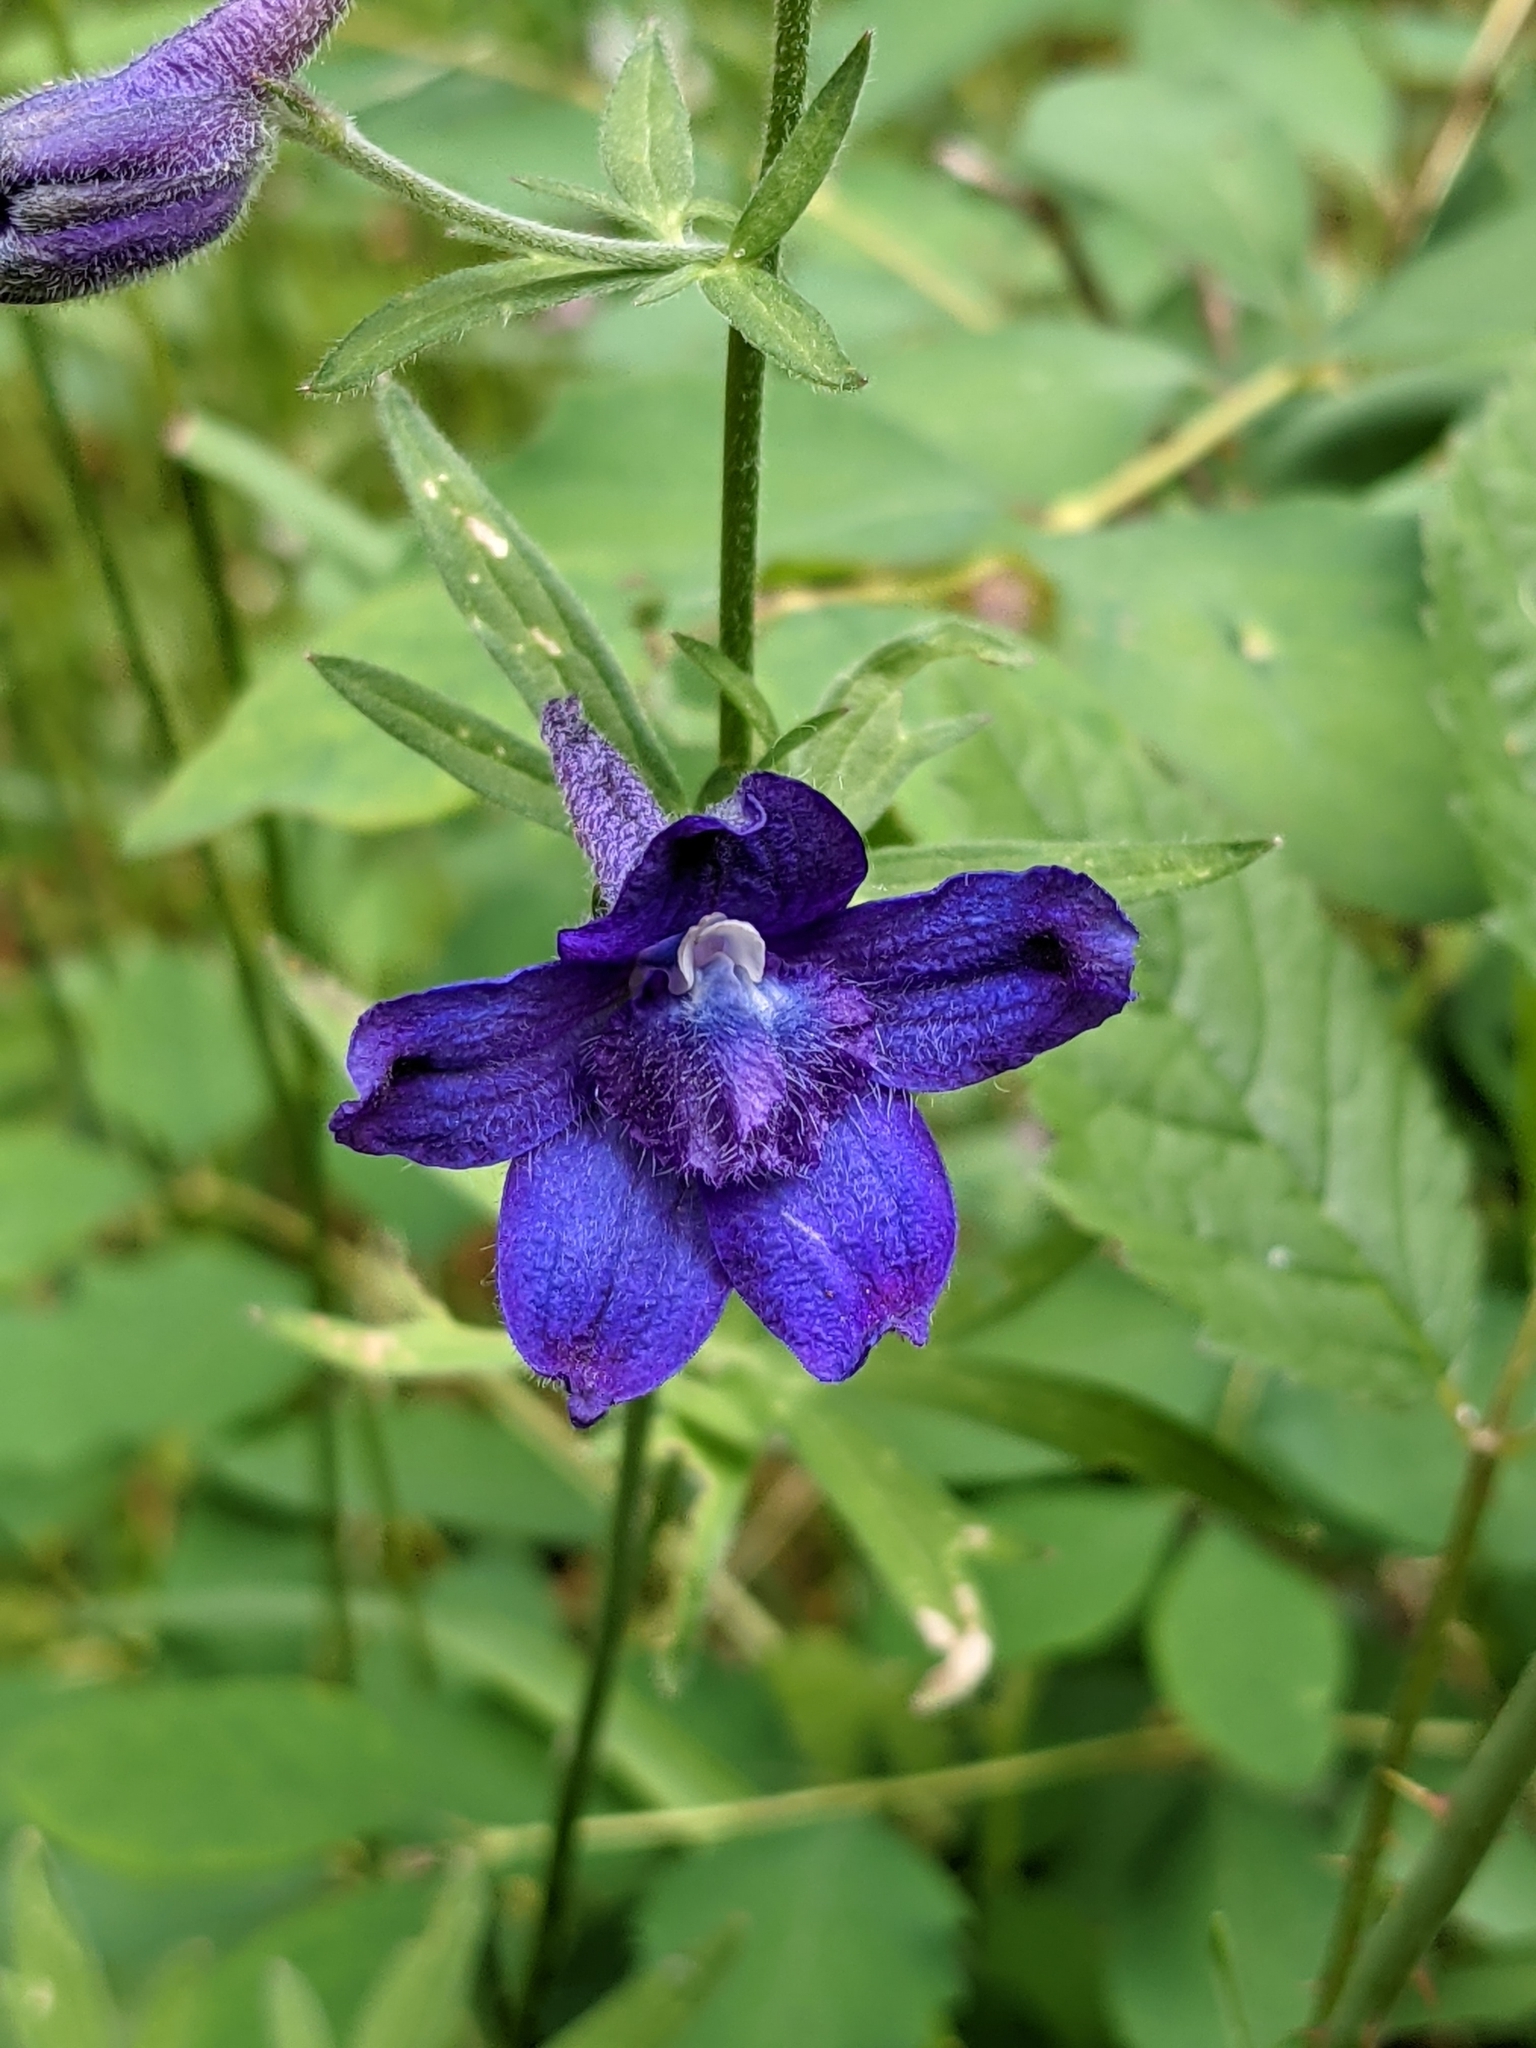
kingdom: Plantae
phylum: Tracheophyta
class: Magnoliopsida
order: Ranunculales
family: Ranunculaceae
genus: Delphinium
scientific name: Delphinium menziesii
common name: Menzies's larkspur
